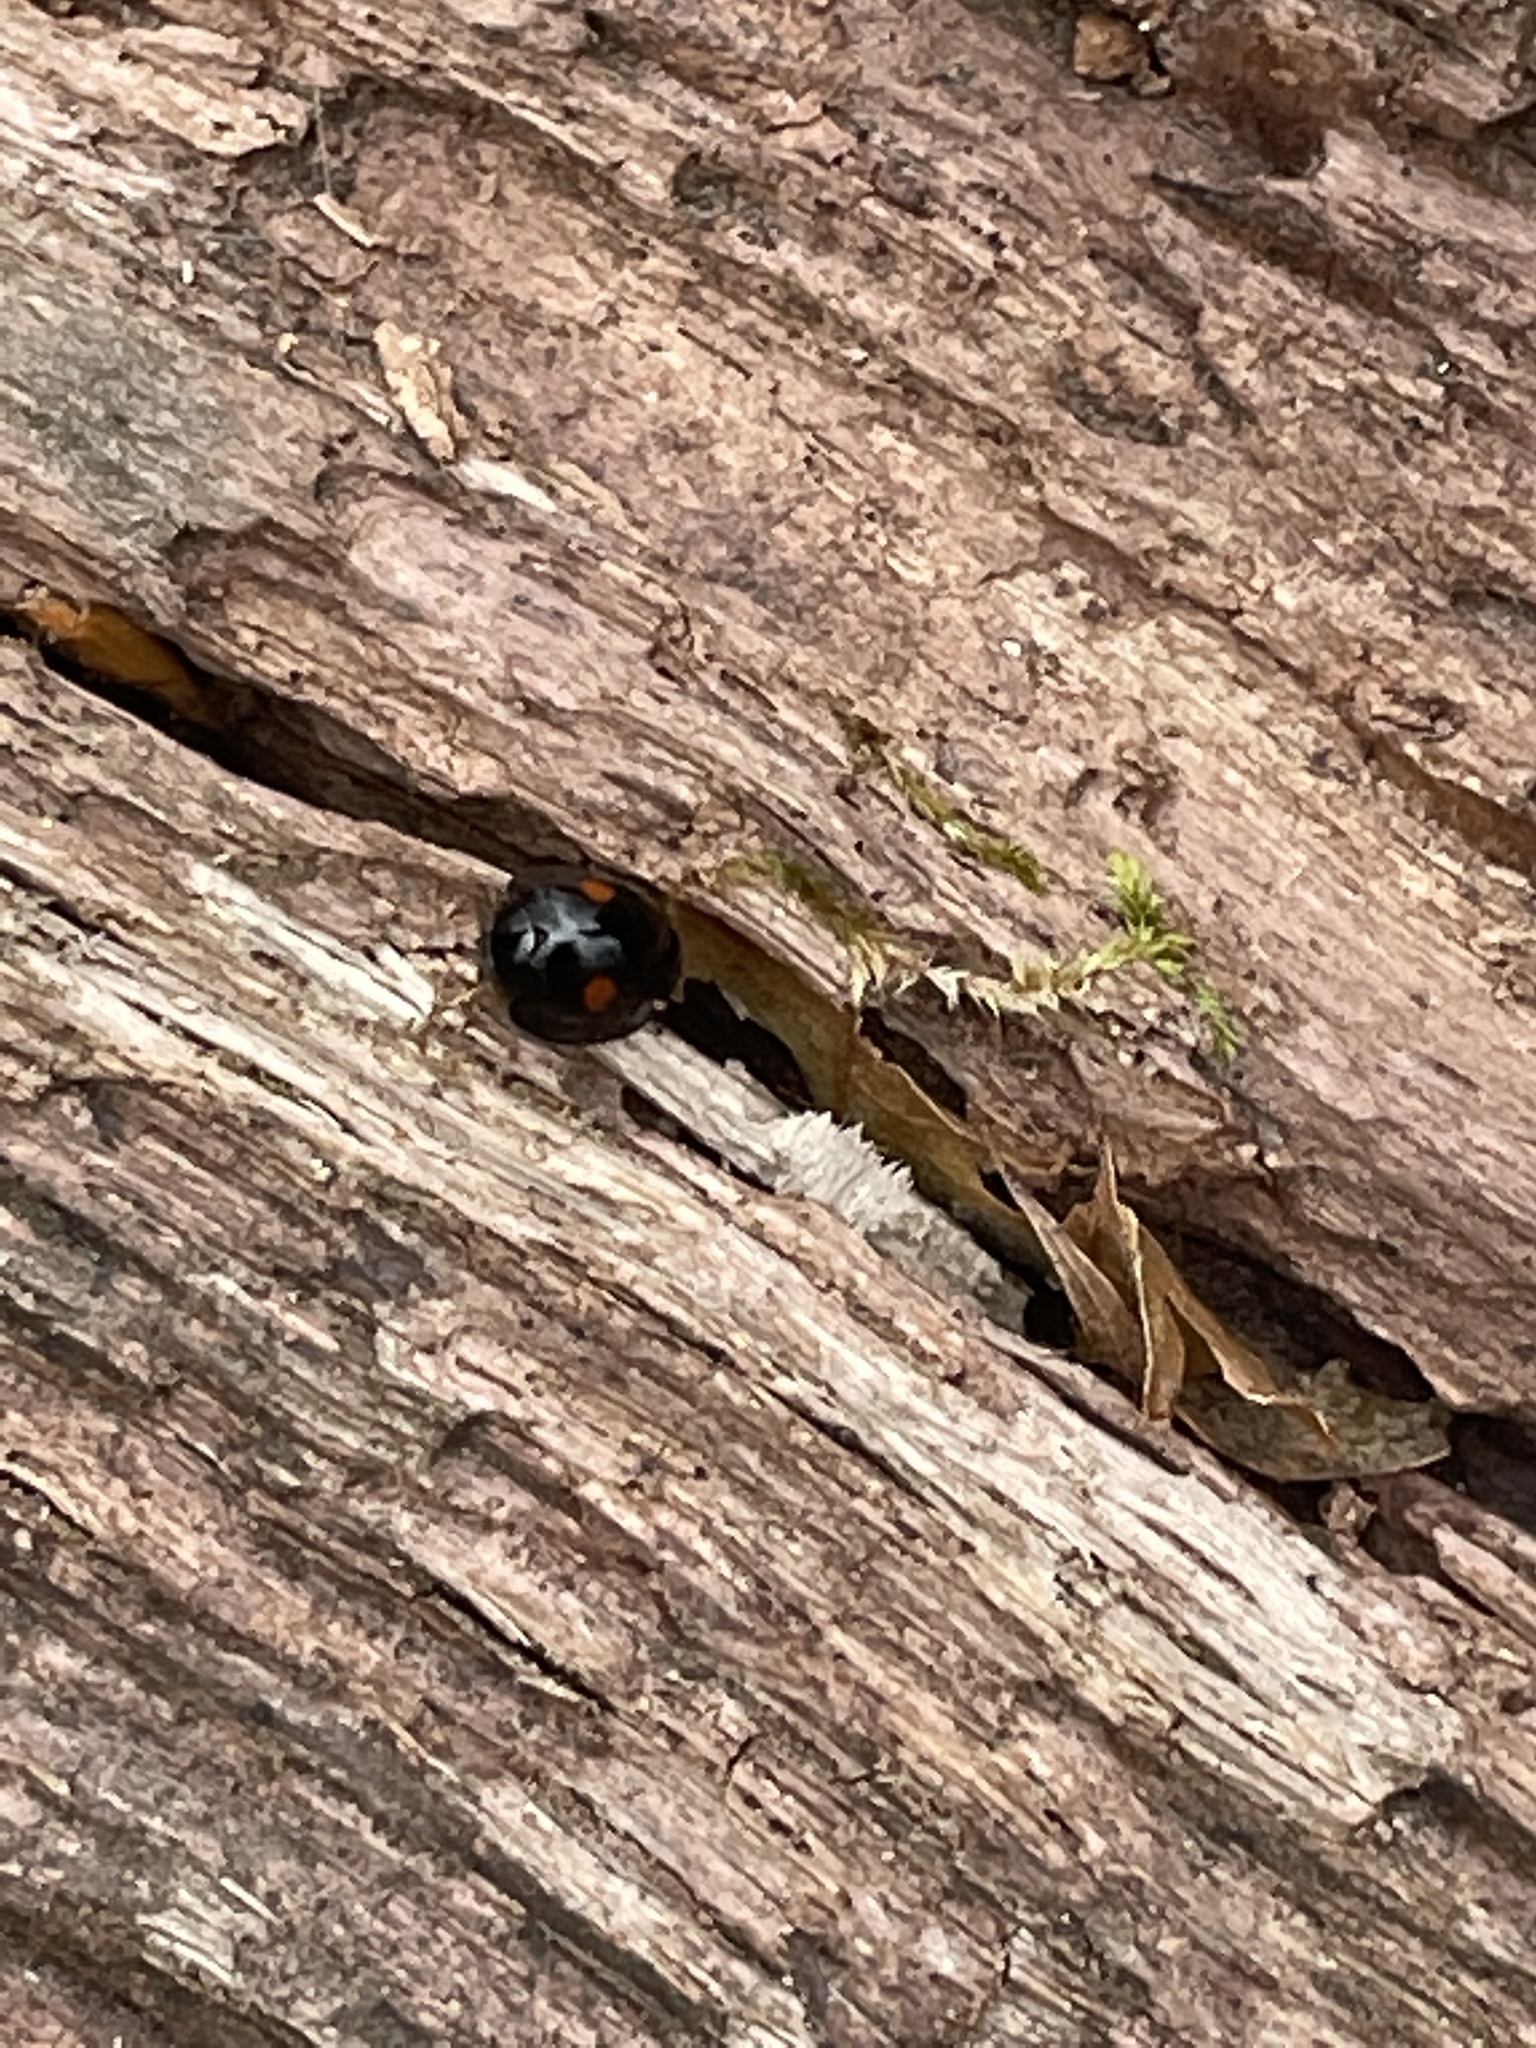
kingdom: Animalia
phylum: Arthropoda
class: Insecta
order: Coleoptera
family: Coccinellidae
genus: Chilocorus
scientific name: Chilocorus stigma
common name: Twicestabbed lady beetle
